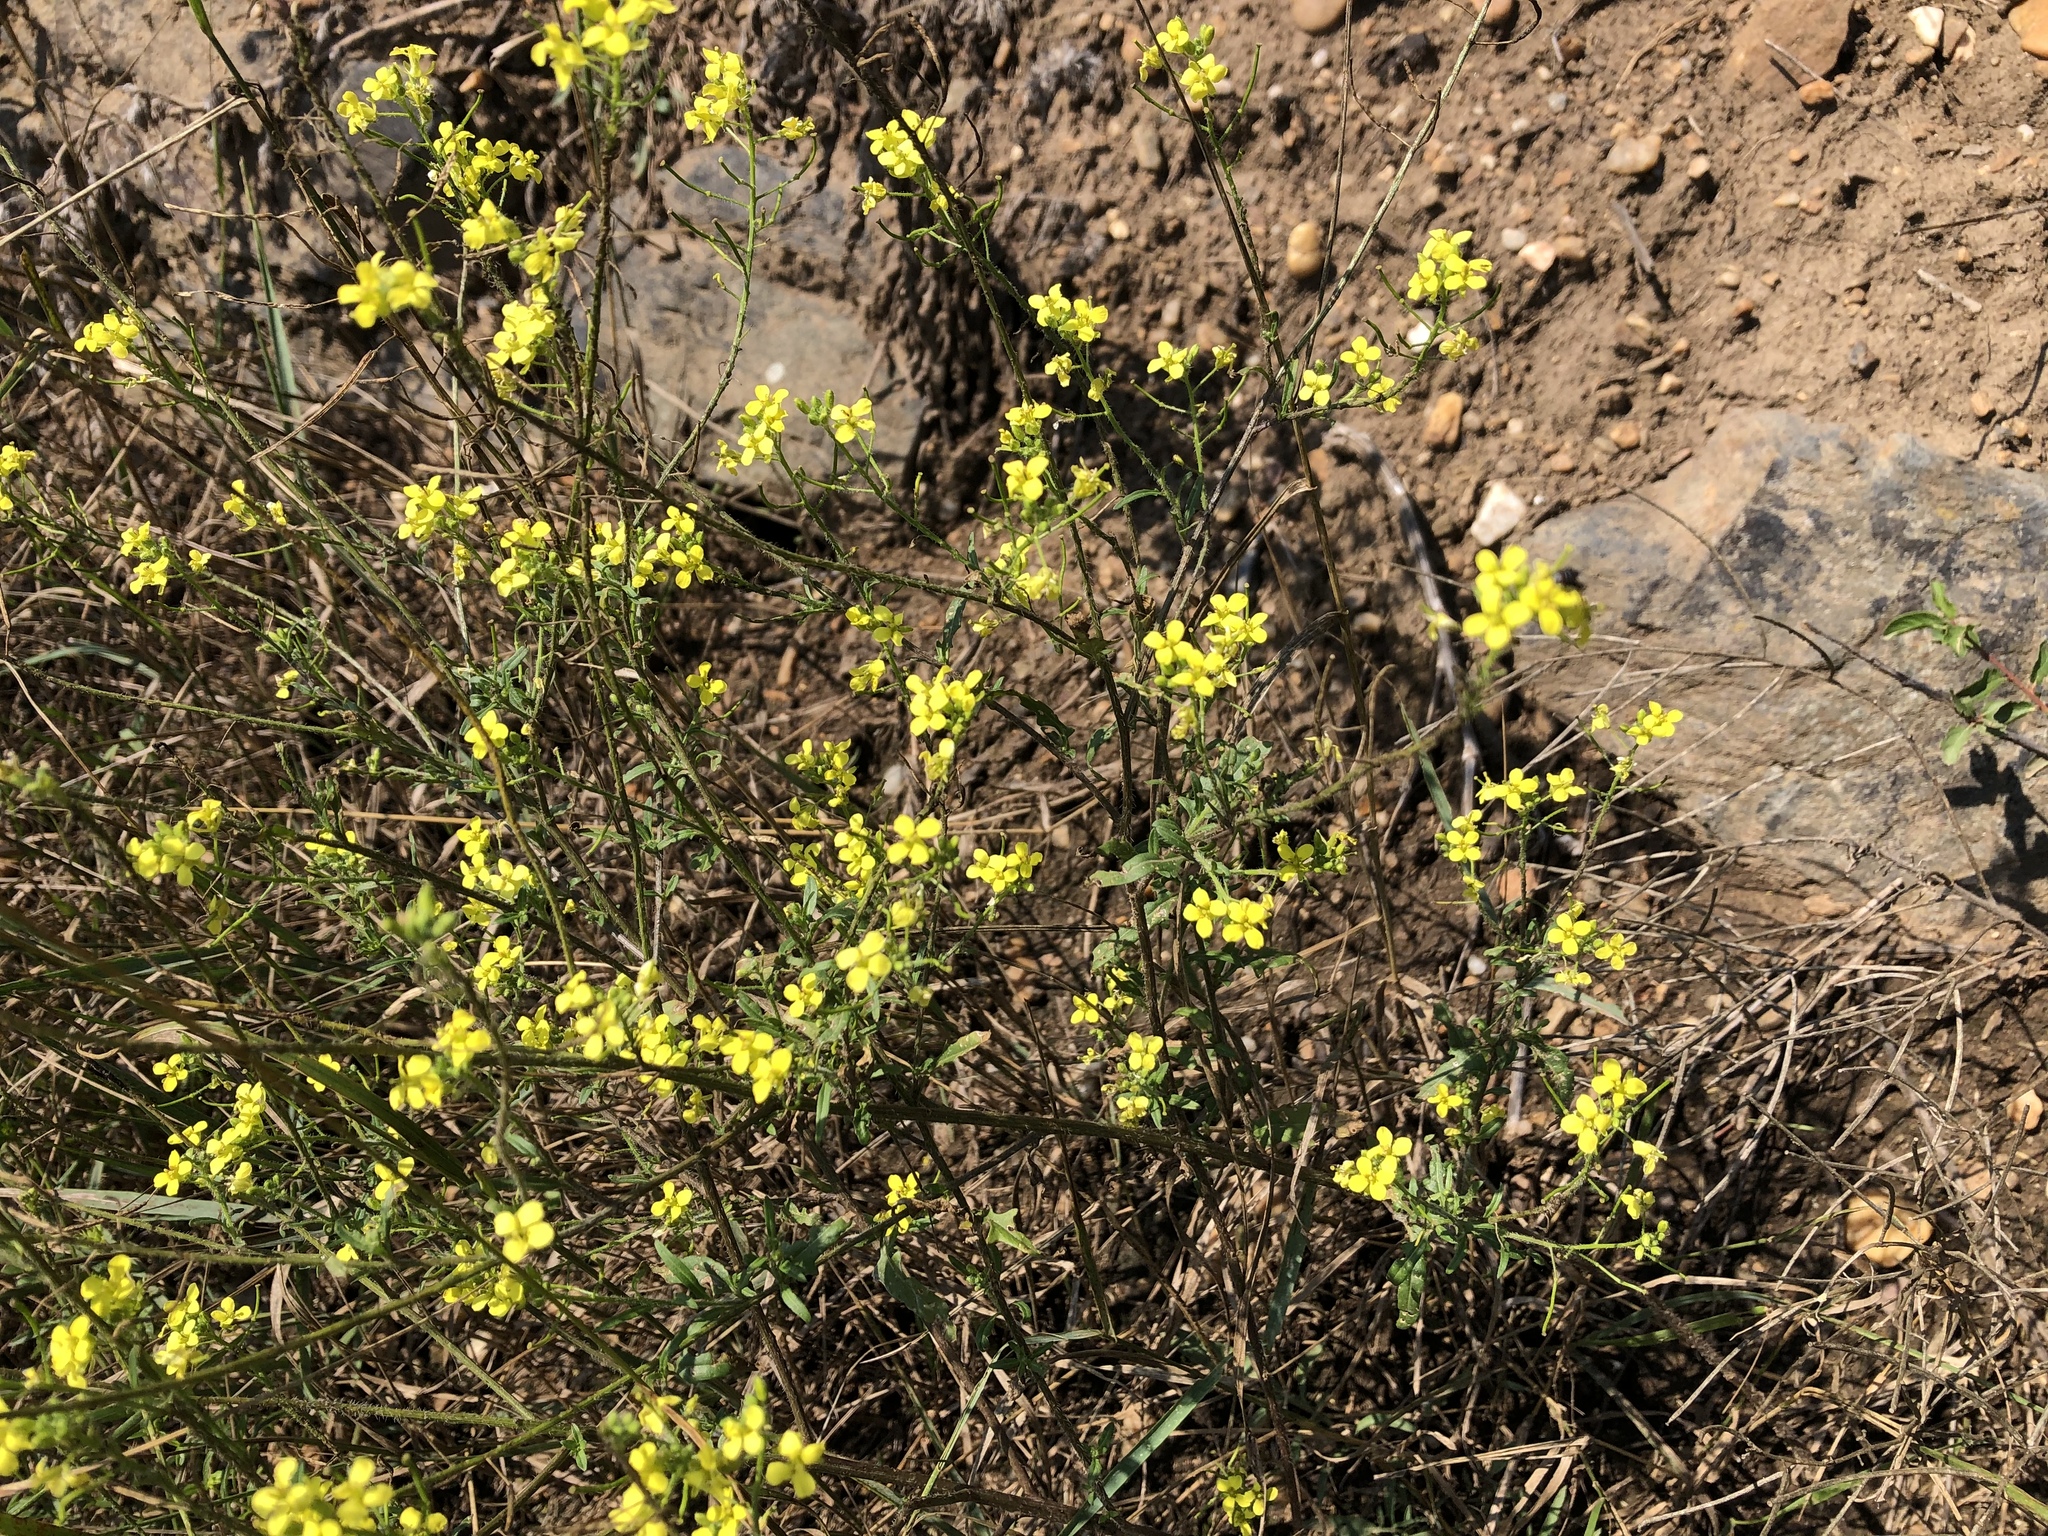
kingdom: Plantae
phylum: Tracheophyta
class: Magnoliopsida
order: Brassicales
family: Brassicaceae
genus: Sisymbrium
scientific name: Sisymbrium loeselii
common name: False london-rocket
